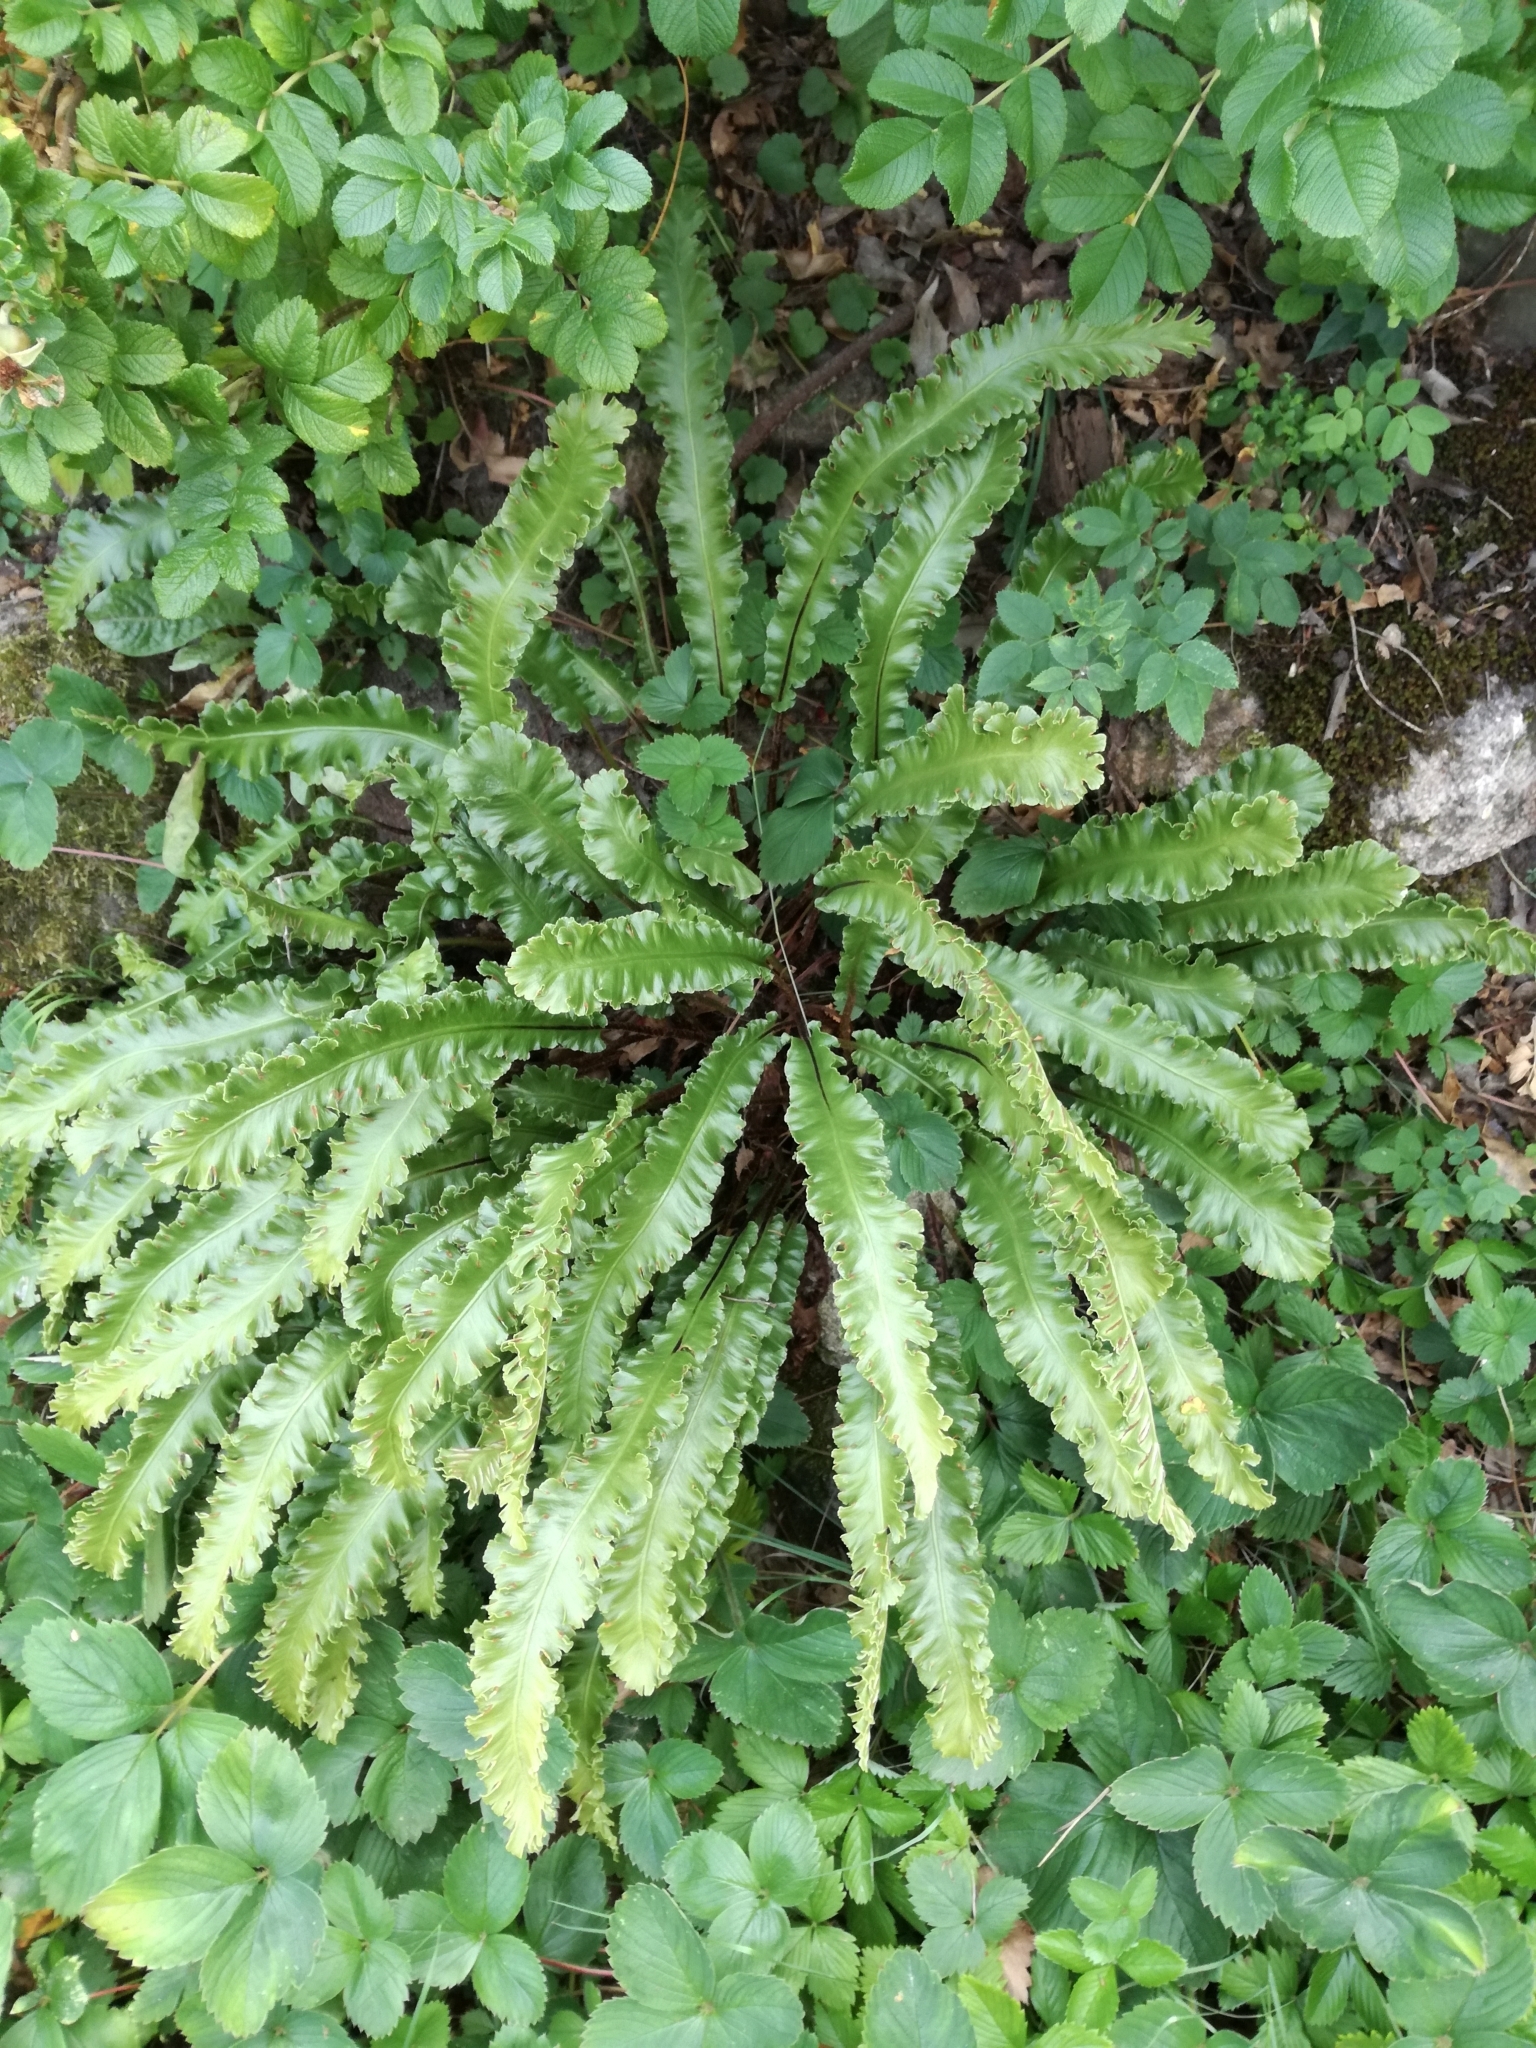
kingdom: Plantae
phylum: Tracheophyta
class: Polypodiopsida
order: Polypodiales
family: Aspleniaceae
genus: Asplenium
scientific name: Asplenium scolopendrium
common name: Hart's-tongue fern
